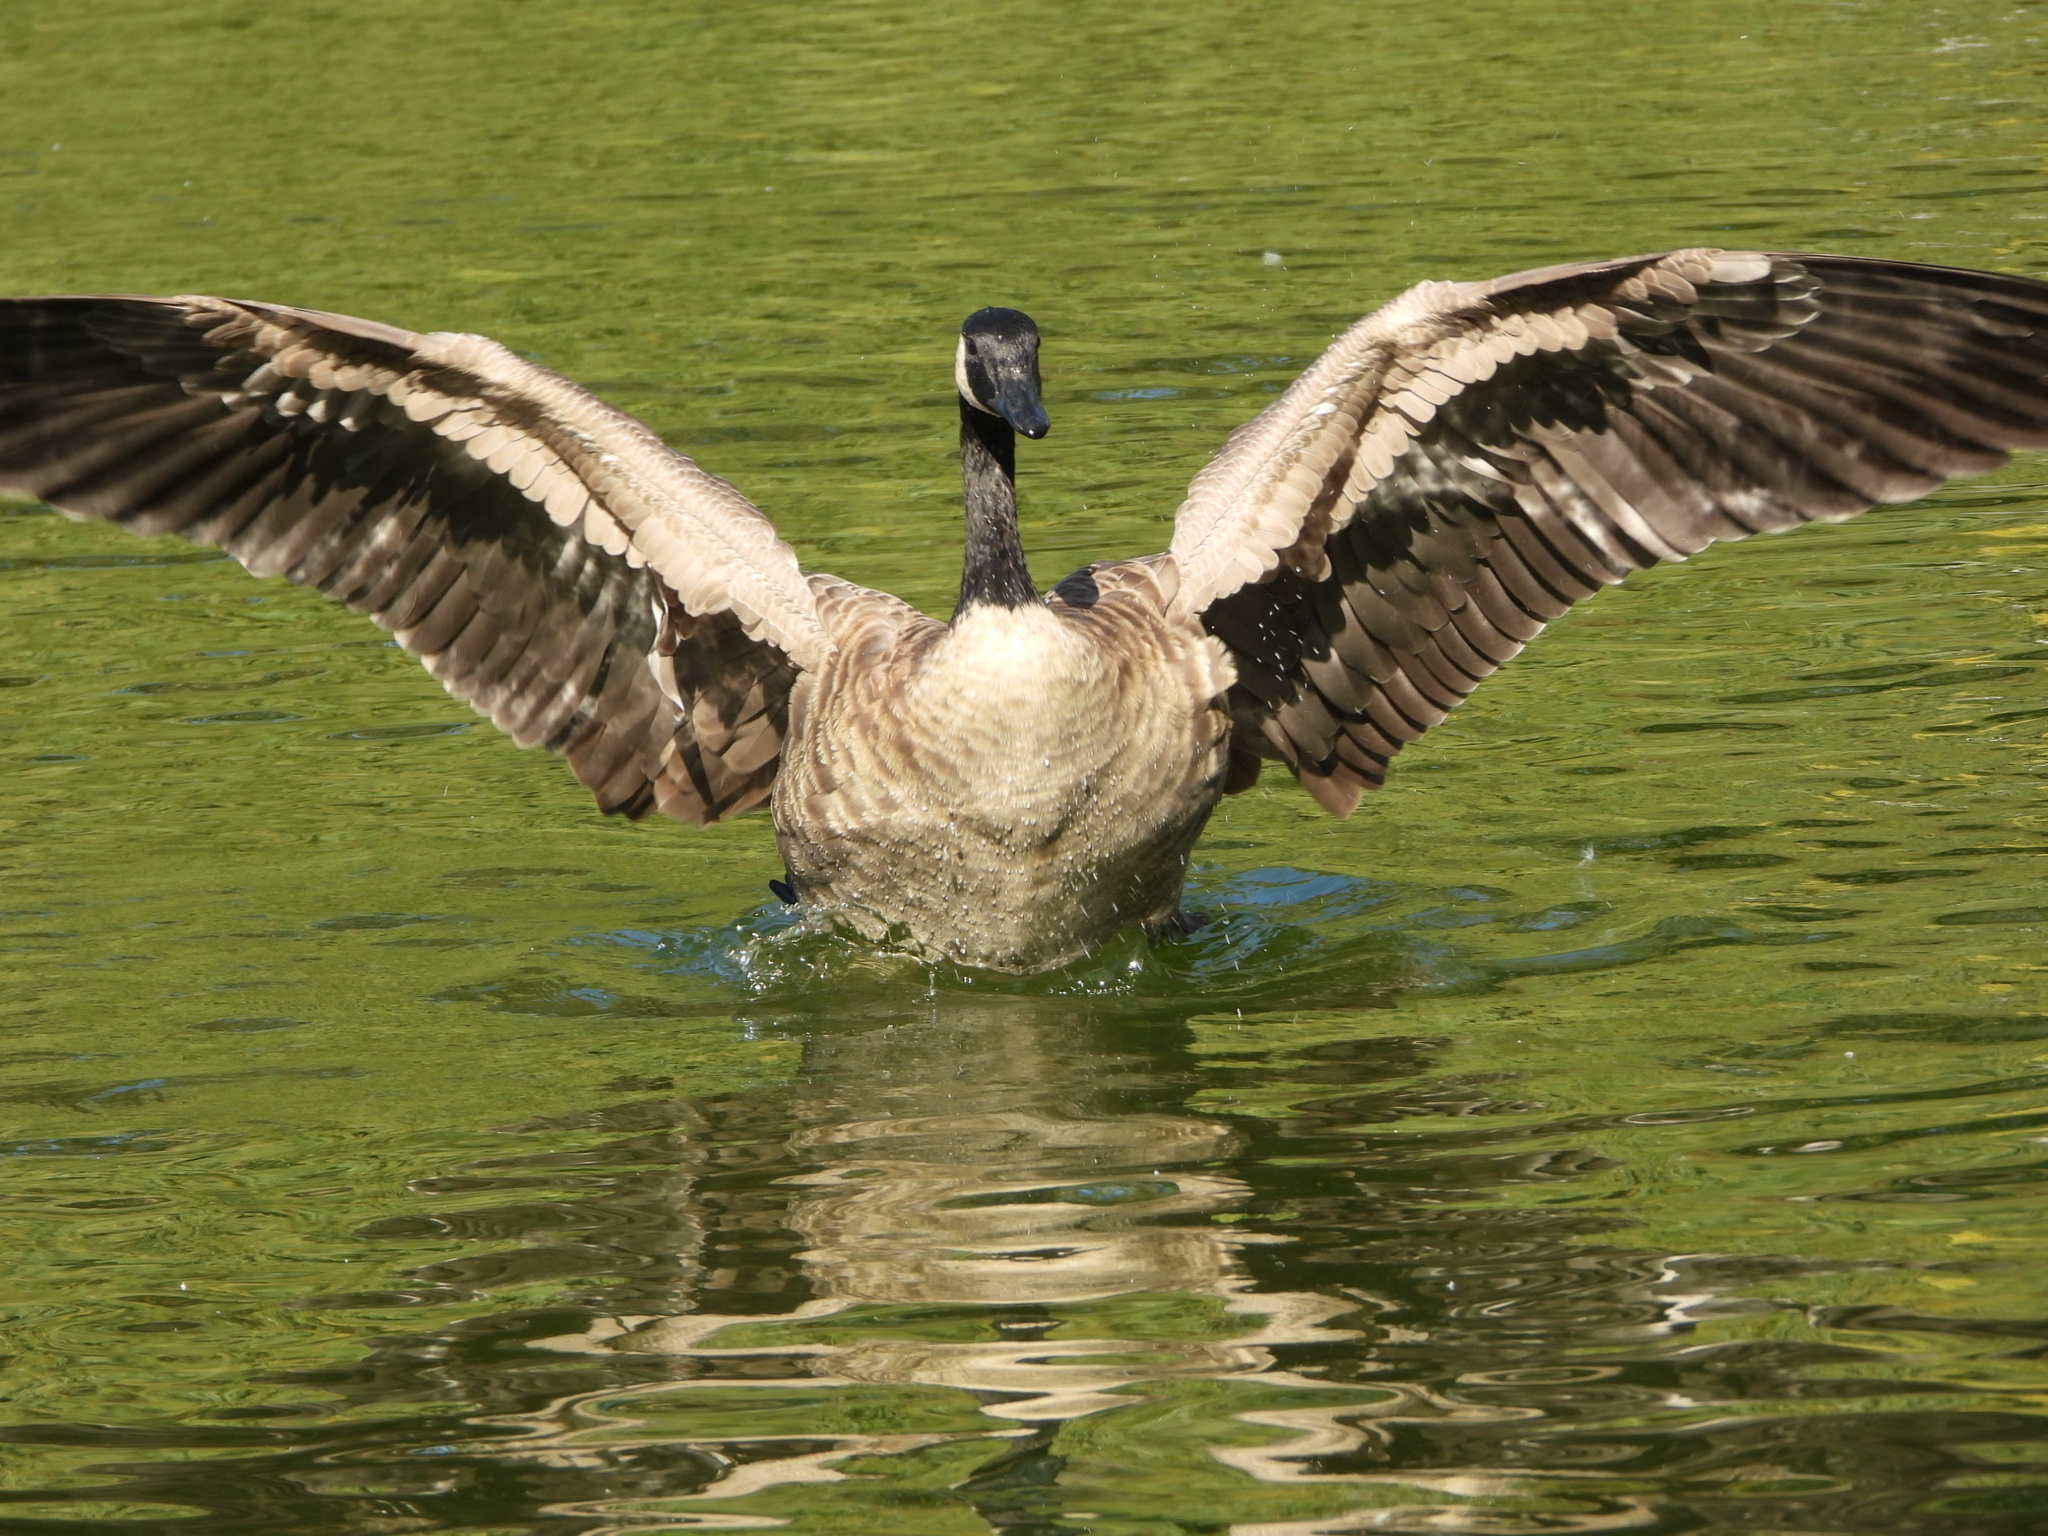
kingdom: Animalia
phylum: Chordata
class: Aves
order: Anseriformes
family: Anatidae
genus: Branta
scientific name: Branta canadensis
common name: Canada goose
